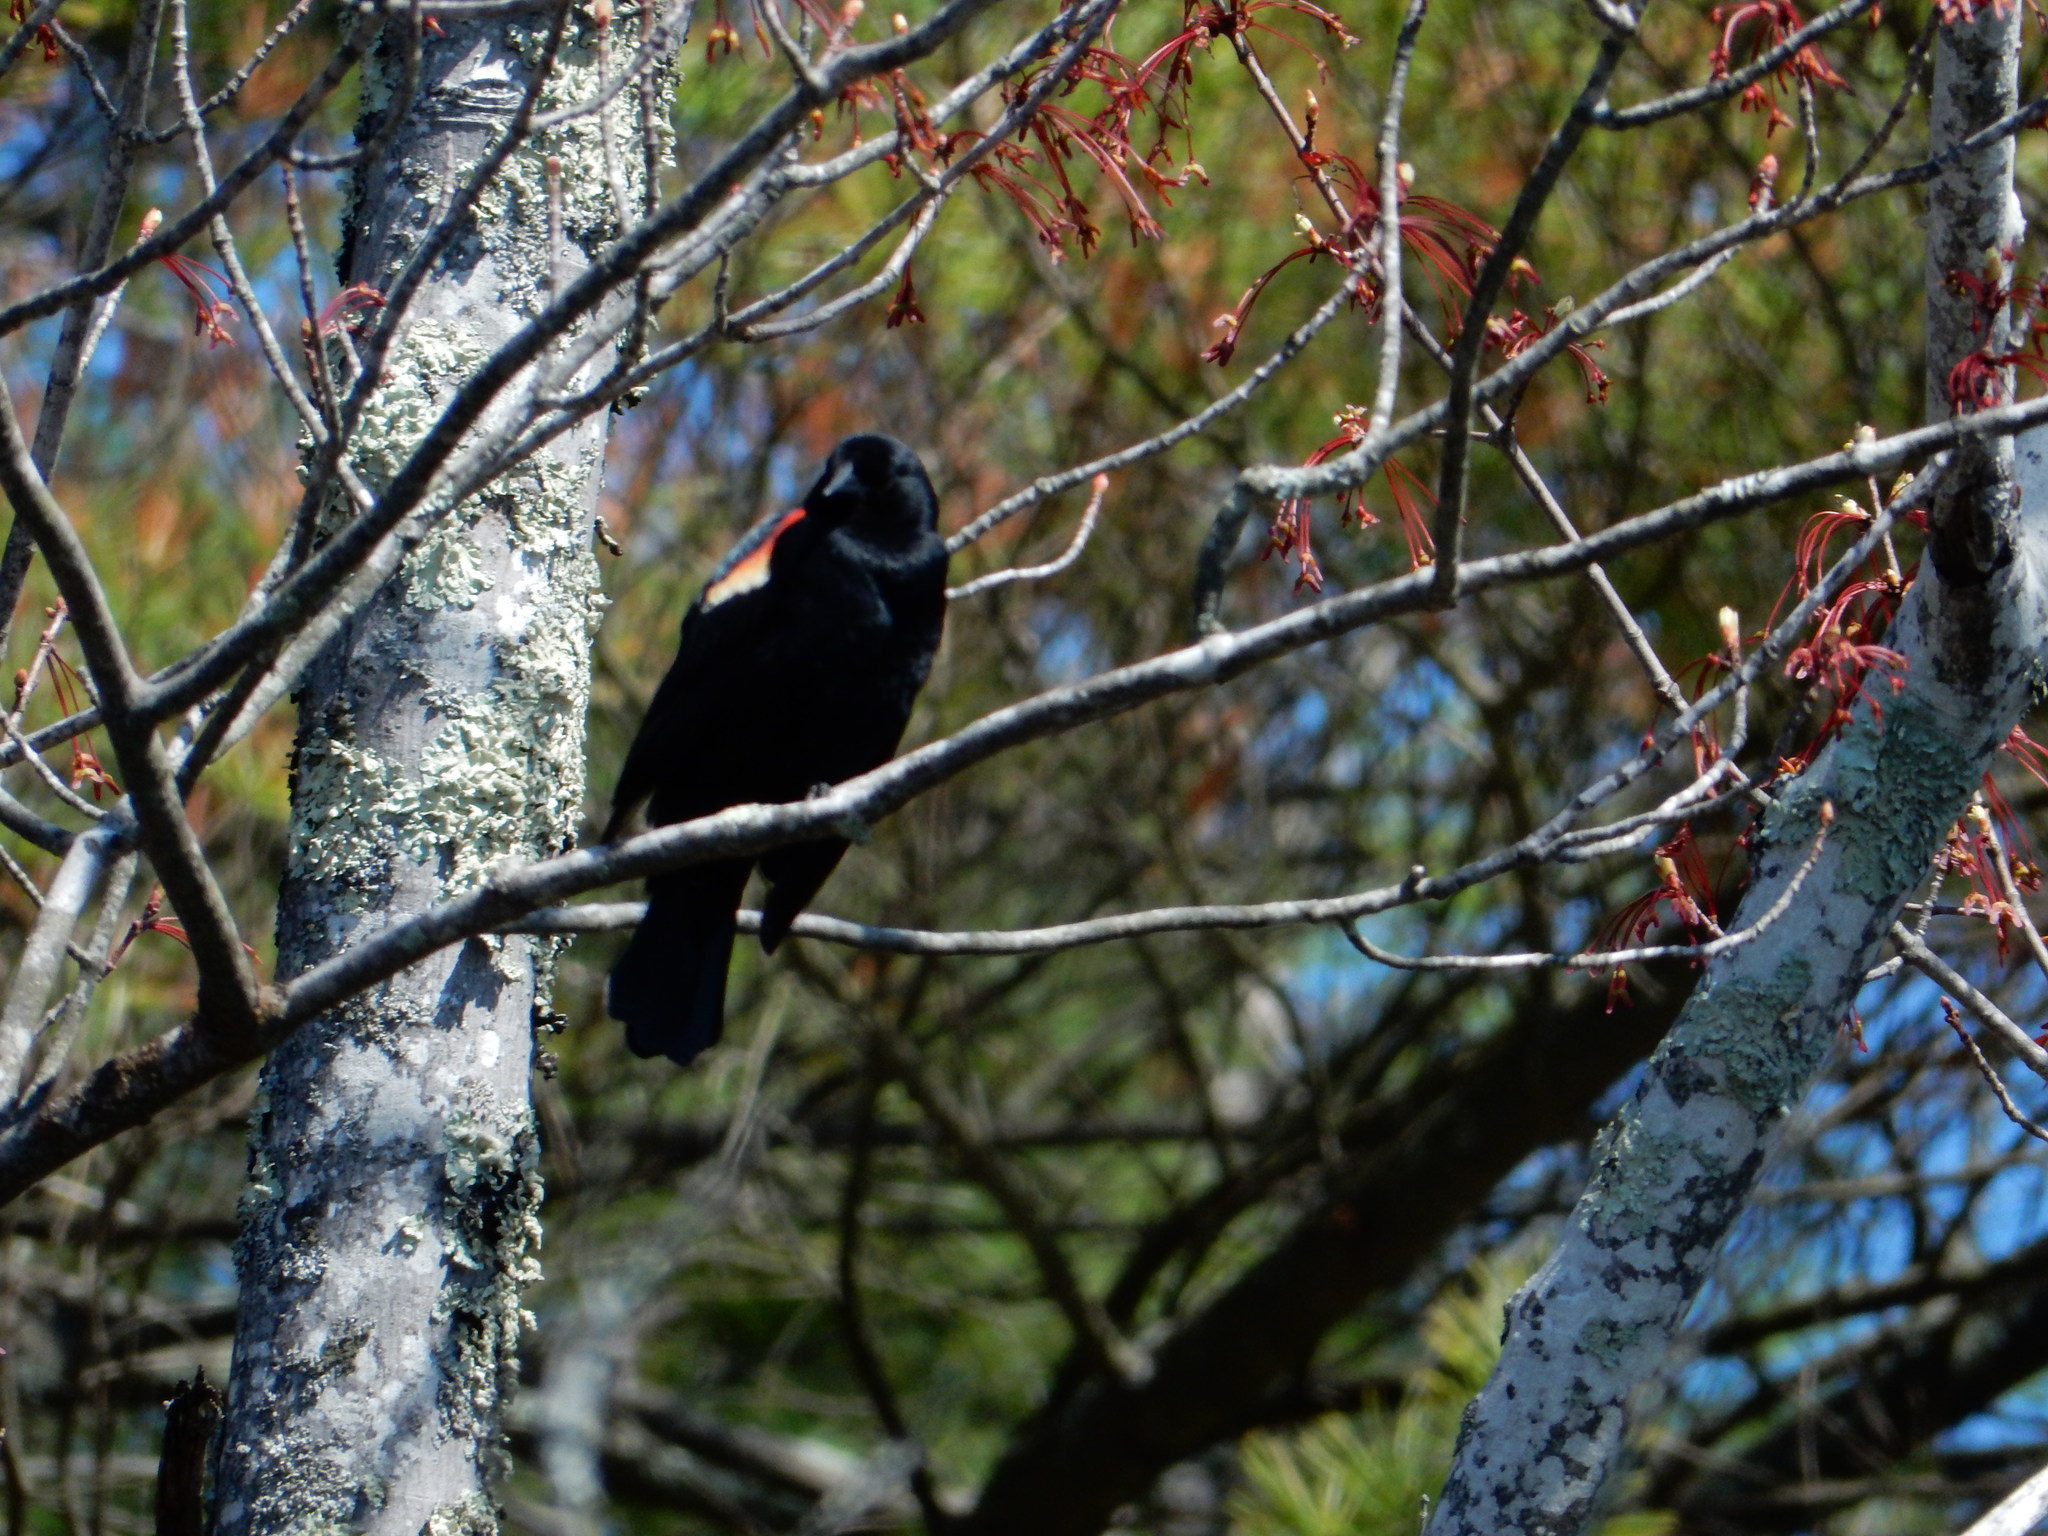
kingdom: Animalia
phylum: Chordata
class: Aves
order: Passeriformes
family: Icteridae
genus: Agelaius
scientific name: Agelaius phoeniceus
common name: Red-winged blackbird
